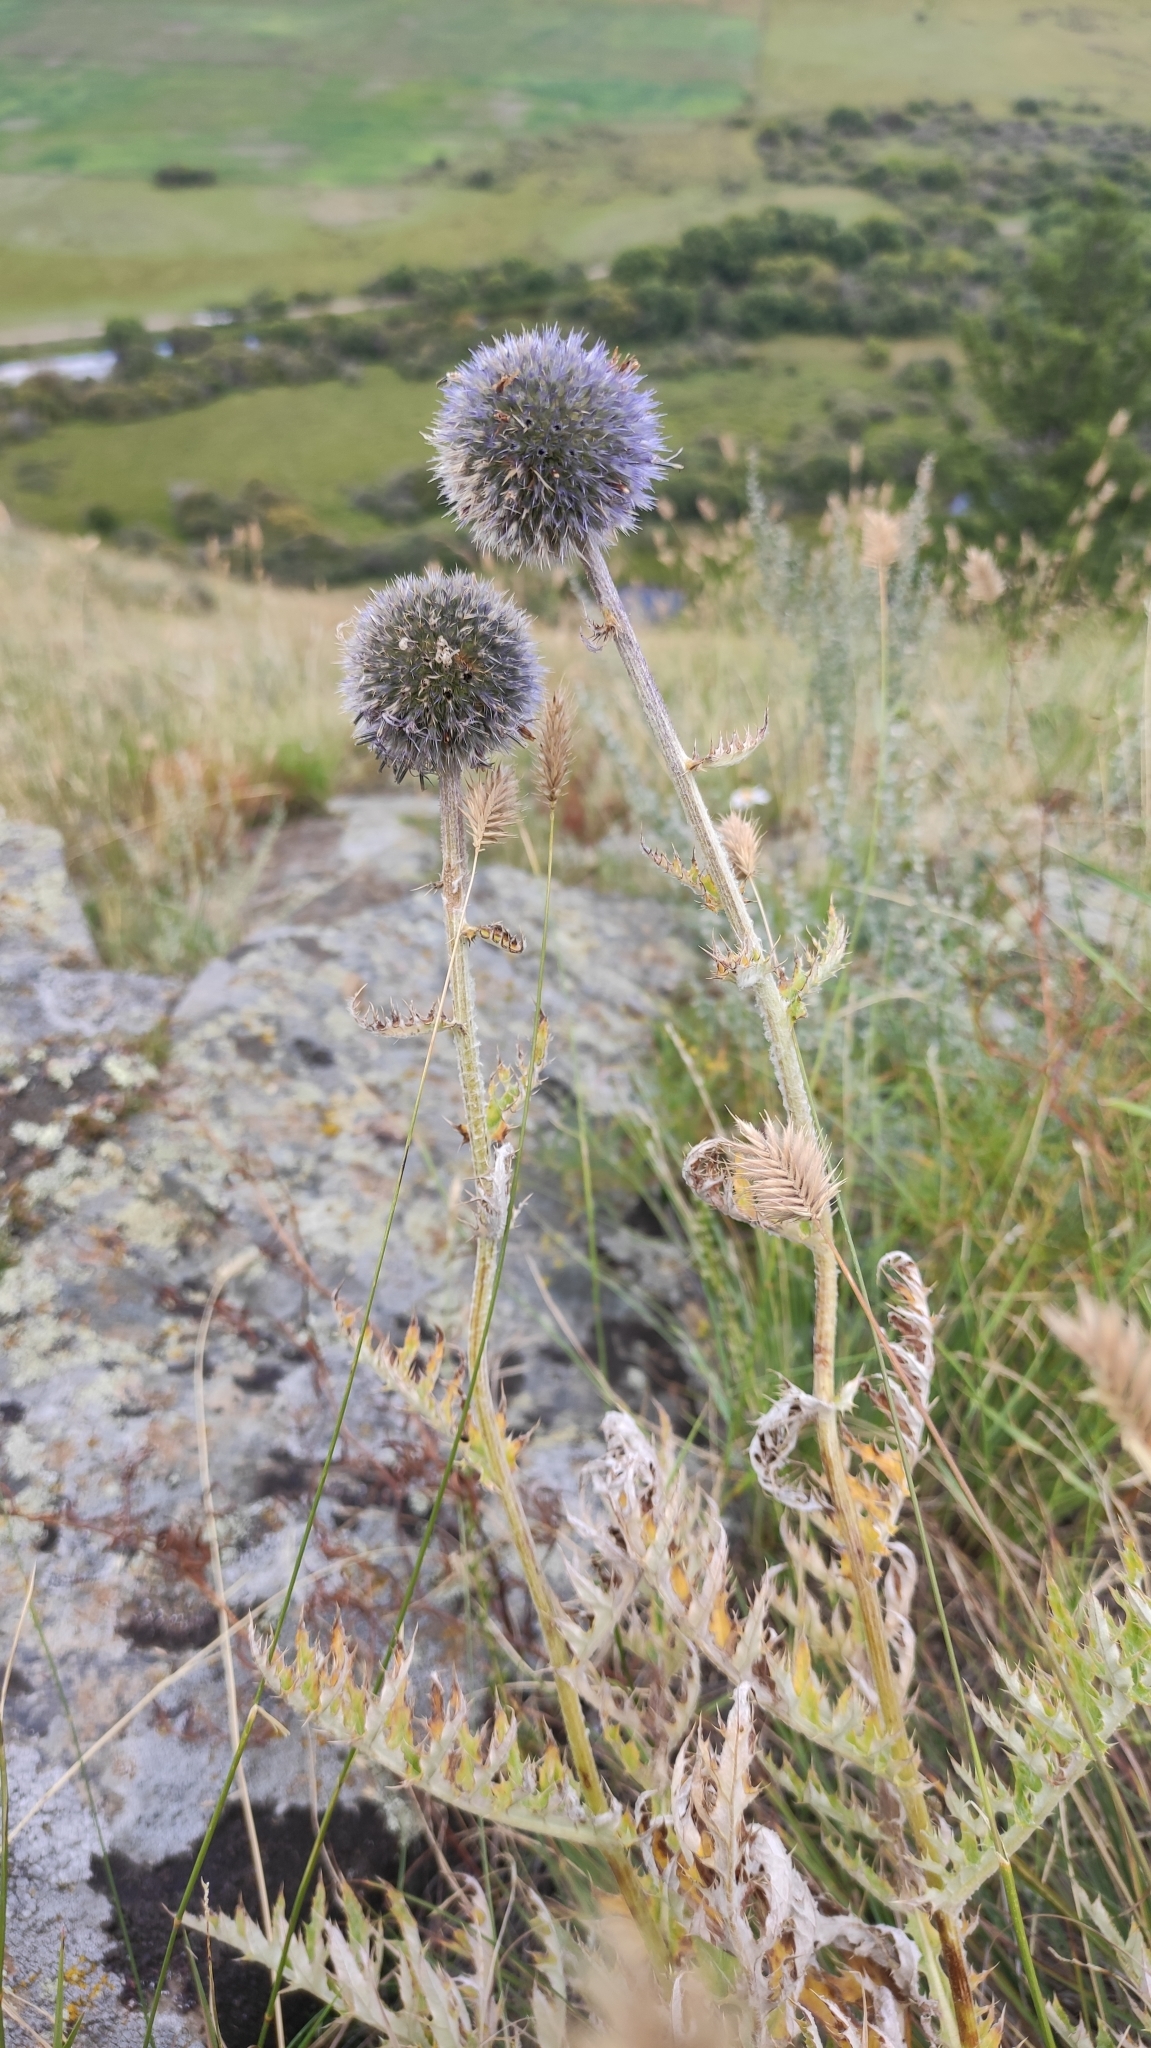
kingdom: Plantae
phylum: Tracheophyta
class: Magnoliopsida
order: Asterales
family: Asteraceae
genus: Echinops
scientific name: Echinops davuricus
